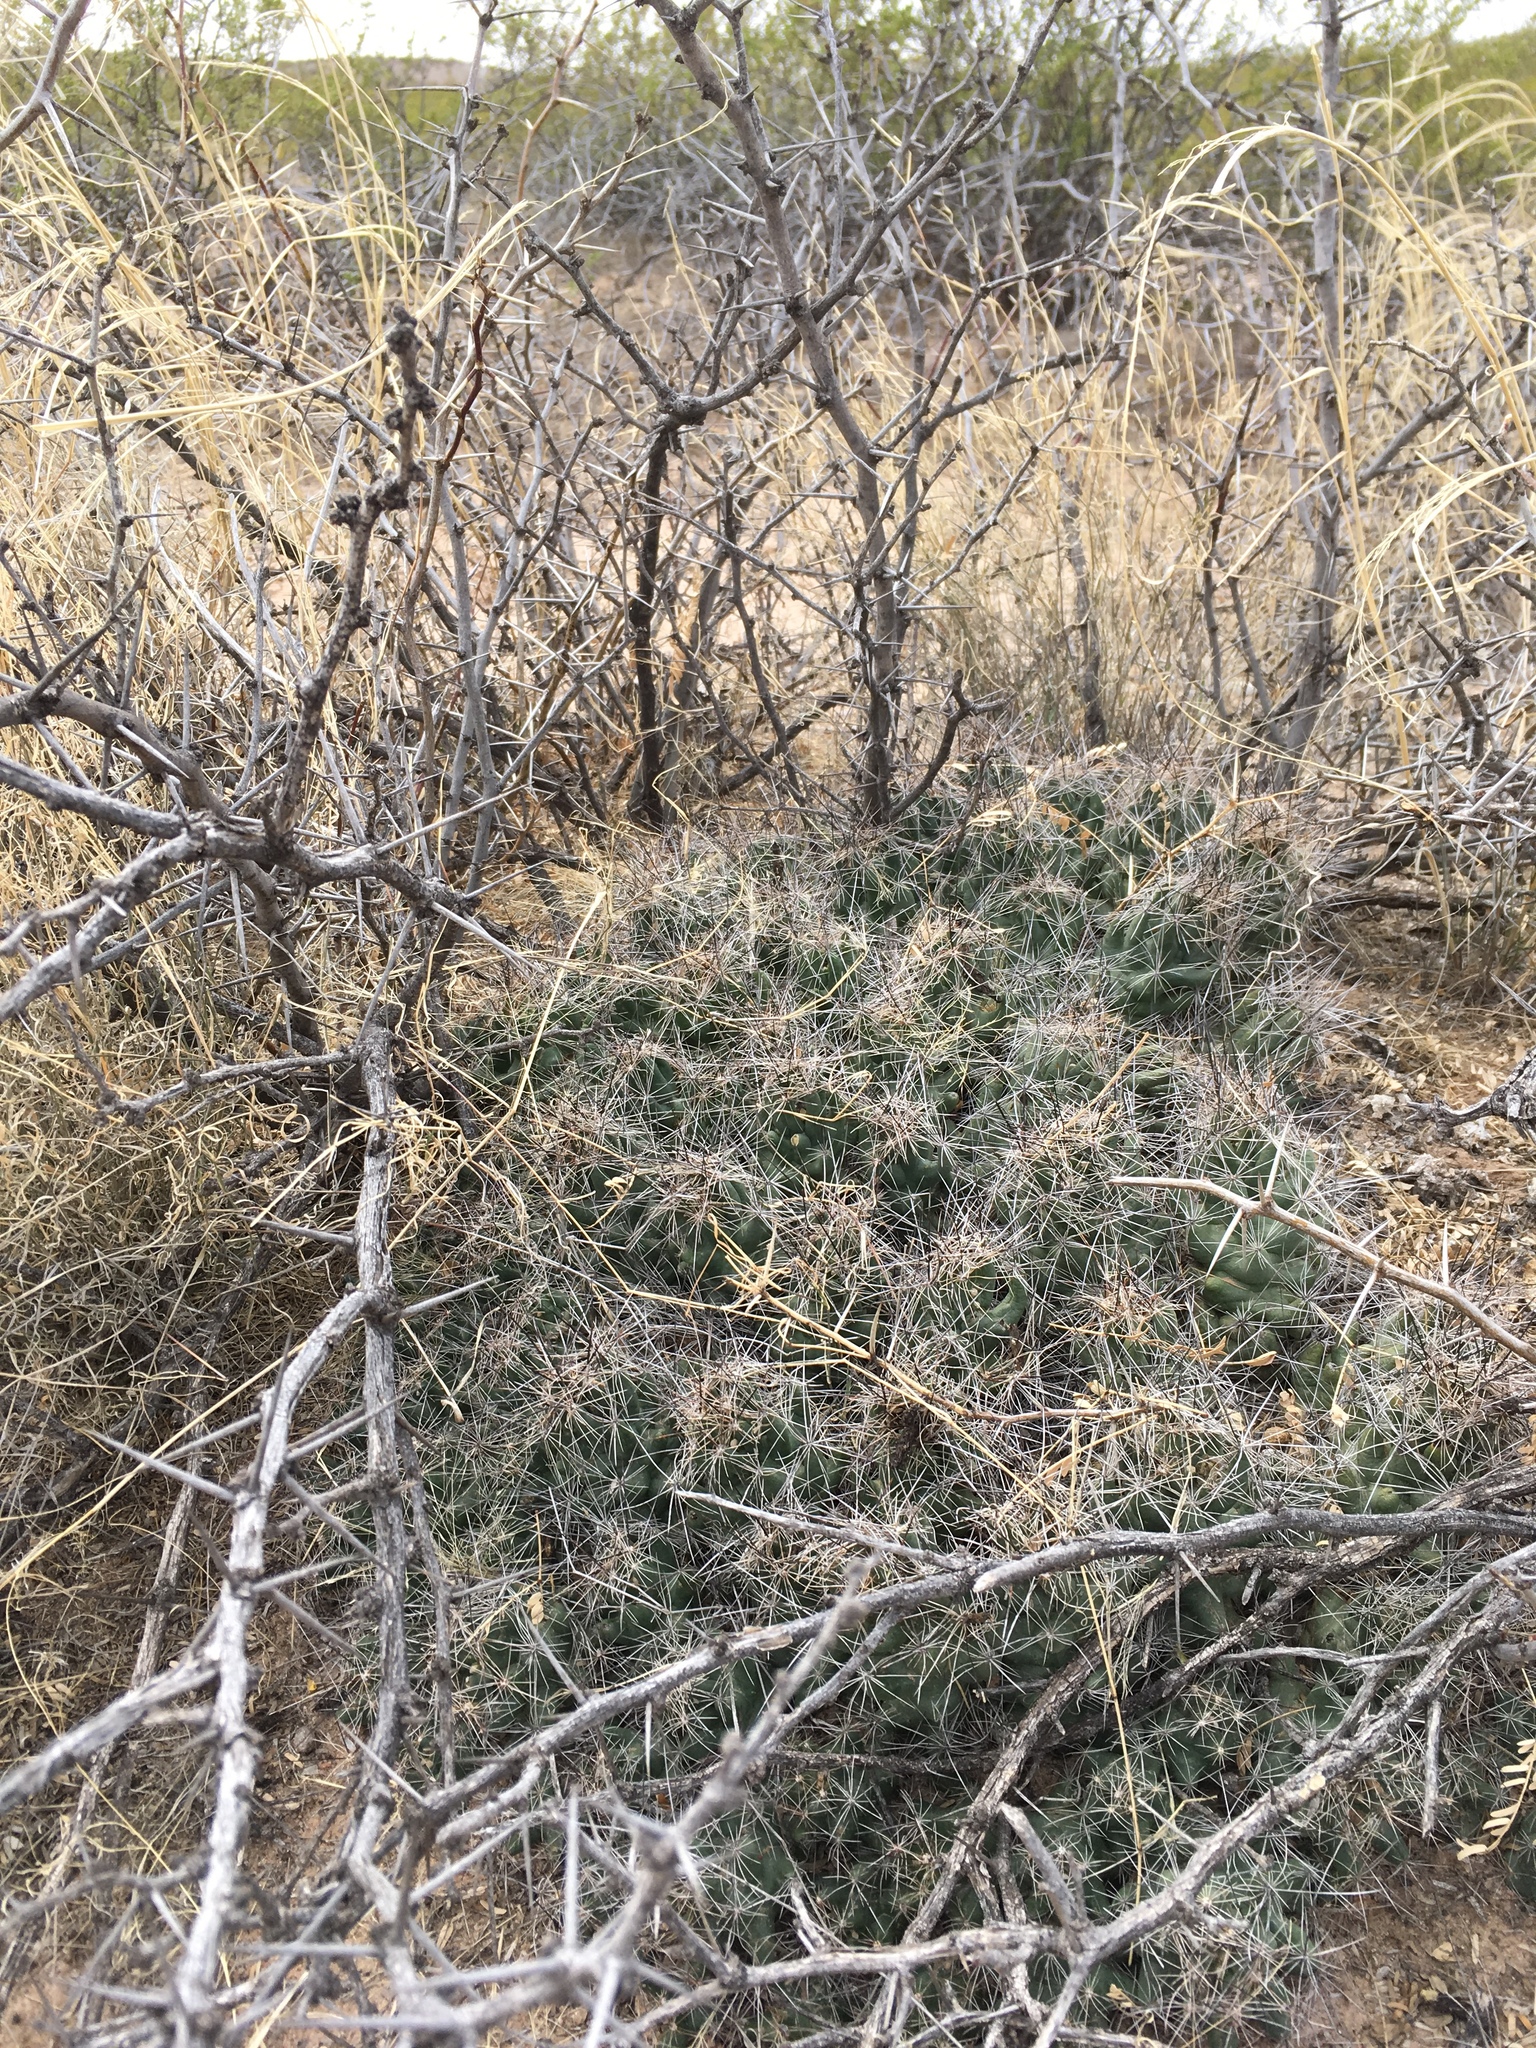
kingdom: Plantae
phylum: Tracheophyta
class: Magnoliopsida
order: Caryophyllales
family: Cactaceae
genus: Coryphantha
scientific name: Coryphantha macromeris
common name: Nipple beehive cactus
